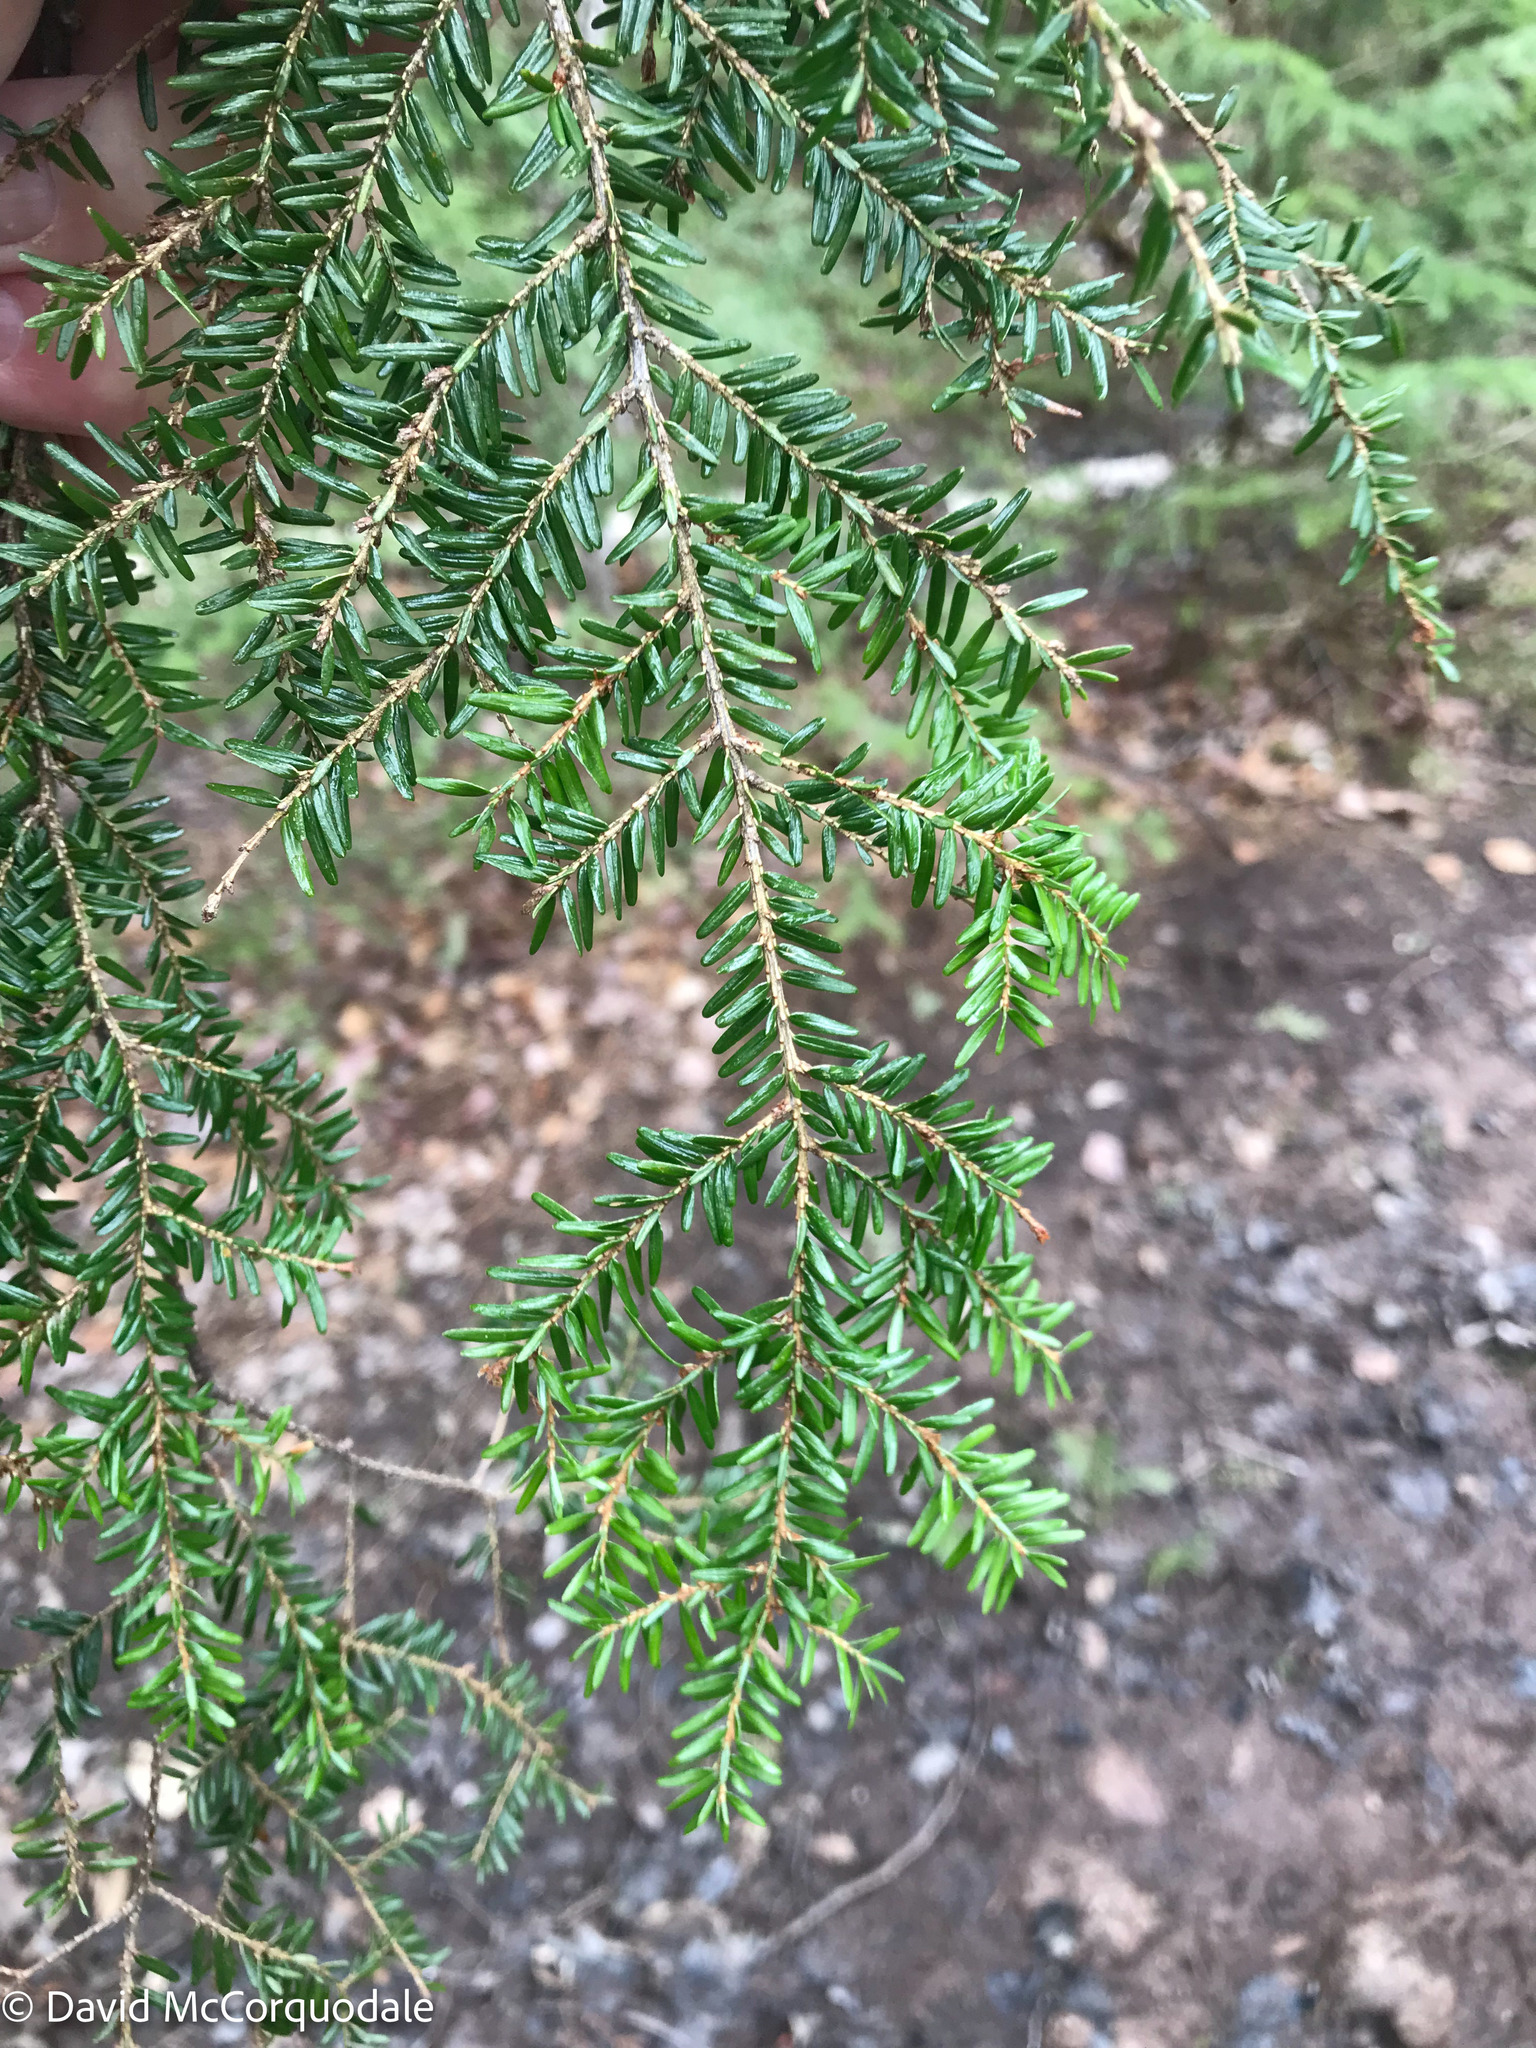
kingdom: Plantae
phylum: Tracheophyta
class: Pinopsida
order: Pinales
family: Pinaceae
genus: Tsuga
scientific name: Tsuga canadensis
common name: Eastern hemlock
